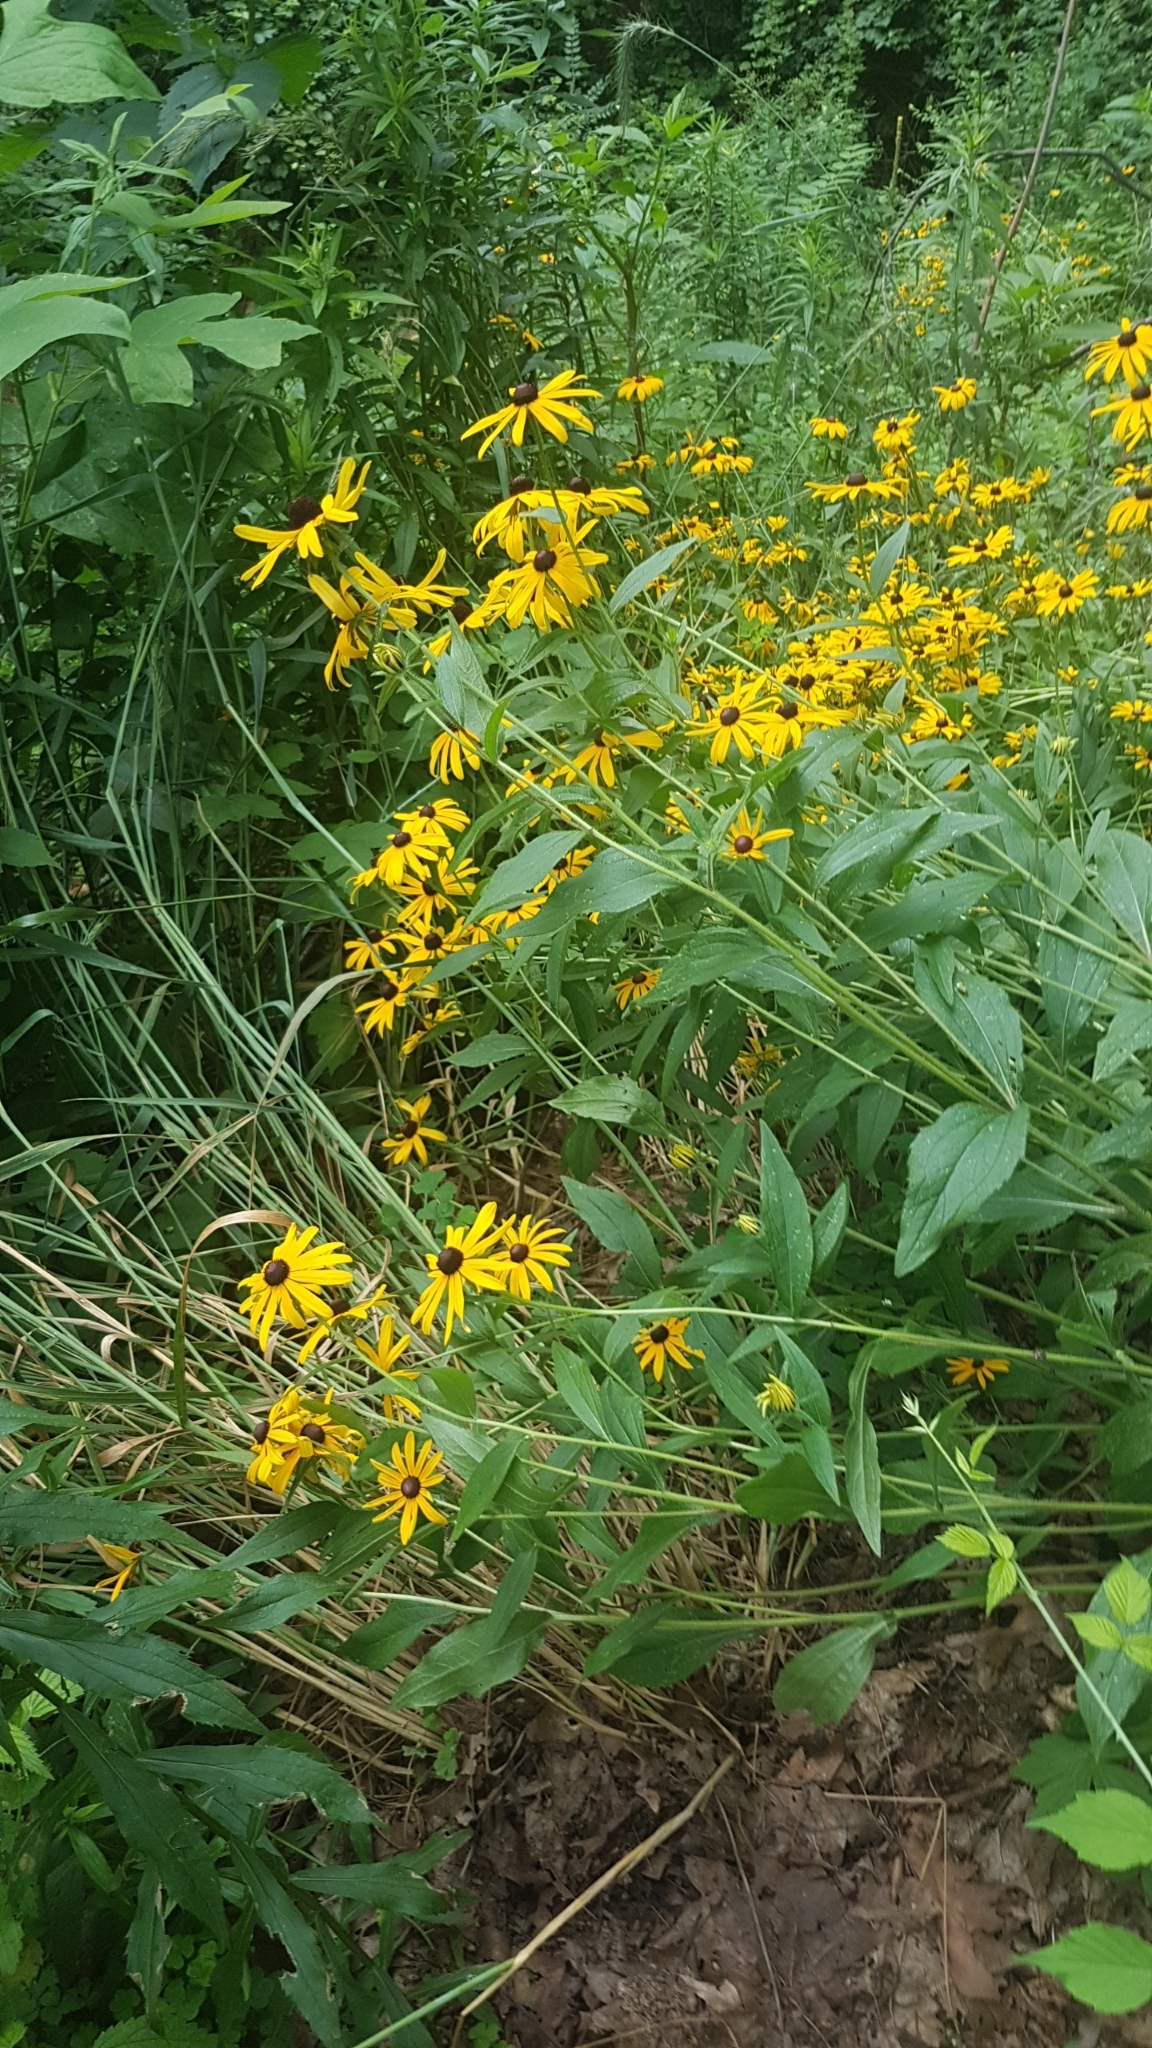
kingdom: Plantae
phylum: Tracheophyta
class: Magnoliopsida
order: Asterales
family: Asteraceae
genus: Rudbeckia
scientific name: Rudbeckia hirta
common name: Black-eyed-susan
